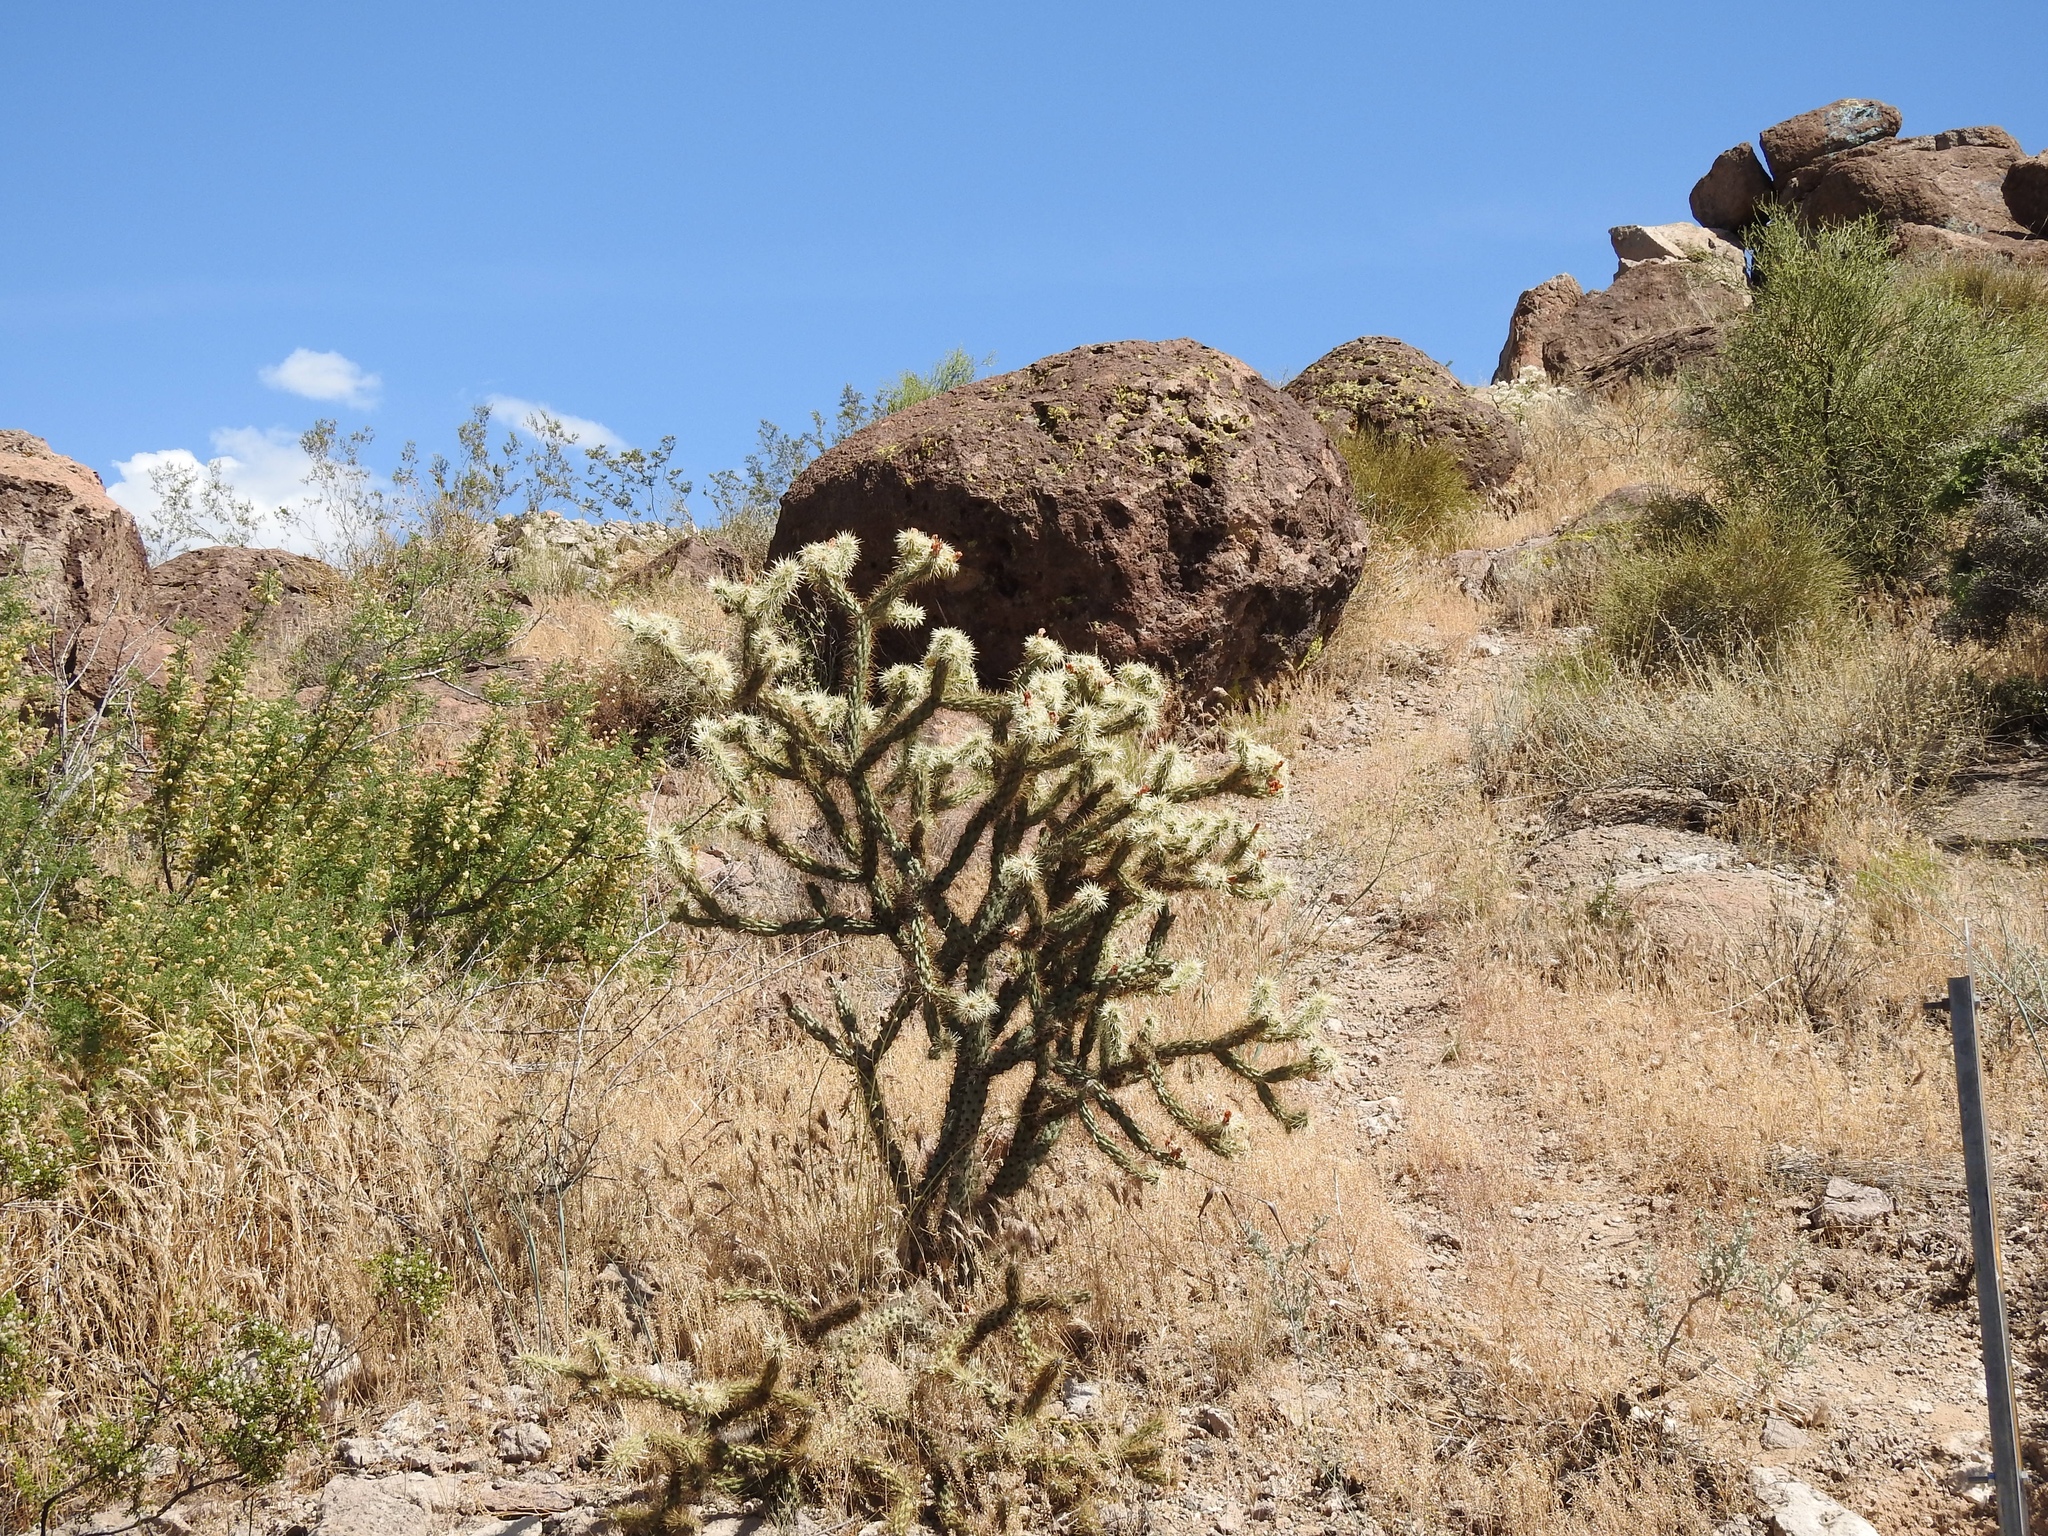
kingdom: Plantae
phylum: Tracheophyta
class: Magnoliopsida
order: Caryophyllales
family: Cactaceae
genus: Cylindropuntia
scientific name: Cylindropuntia acanthocarpa
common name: Buckhorn cholla
